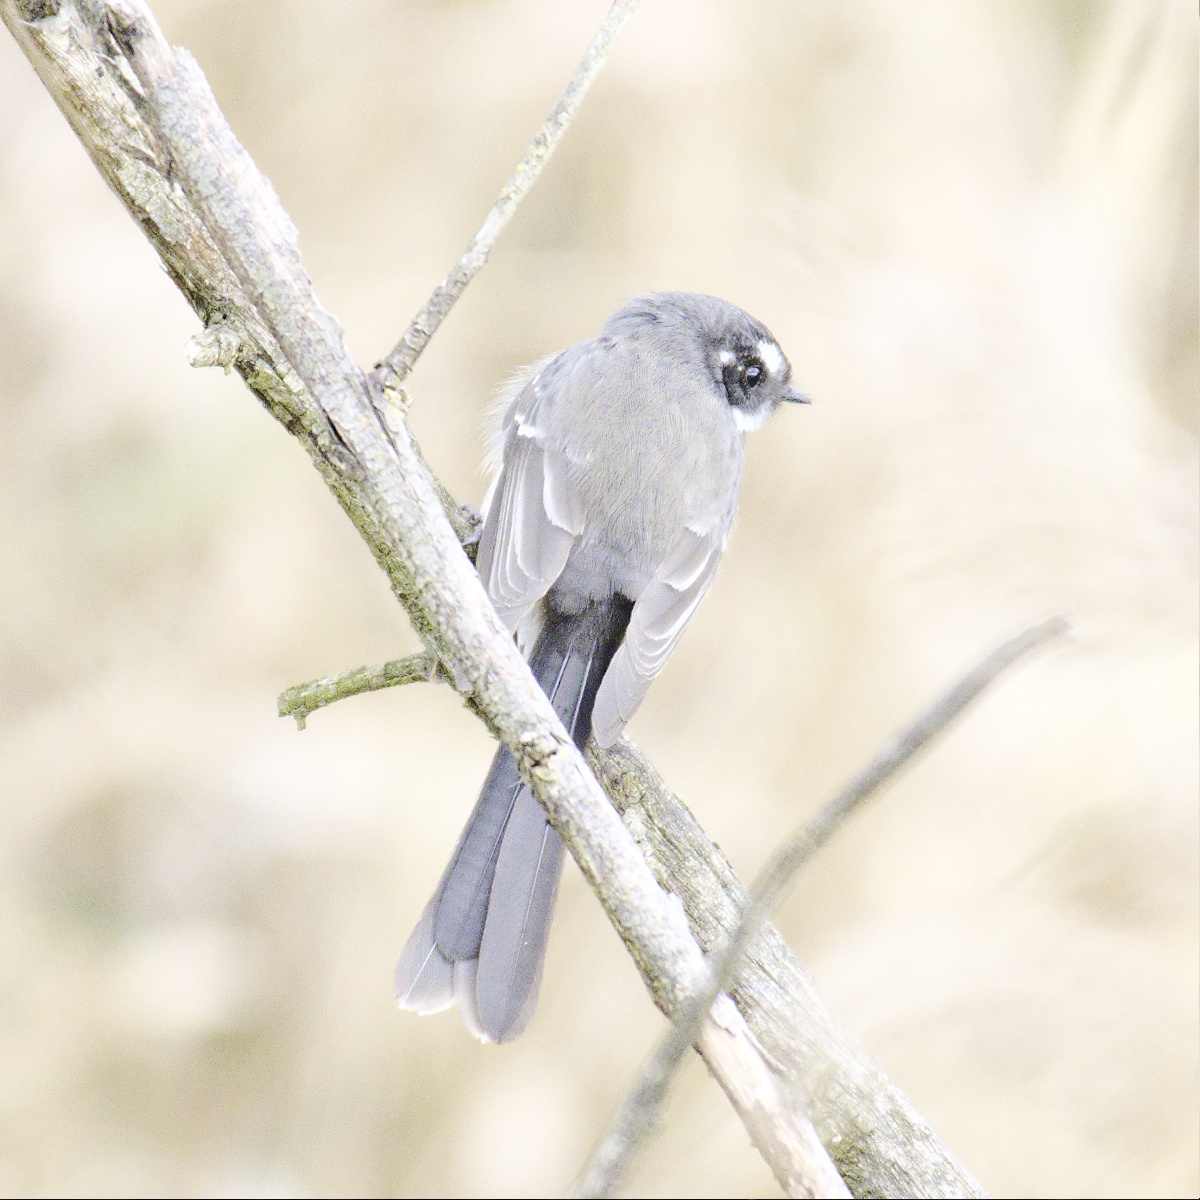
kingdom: Animalia
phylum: Chordata
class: Aves
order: Passeriformes
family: Rhipiduridae
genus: Rhipidura
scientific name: Rhipidura albiscapa
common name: Grey fantail
